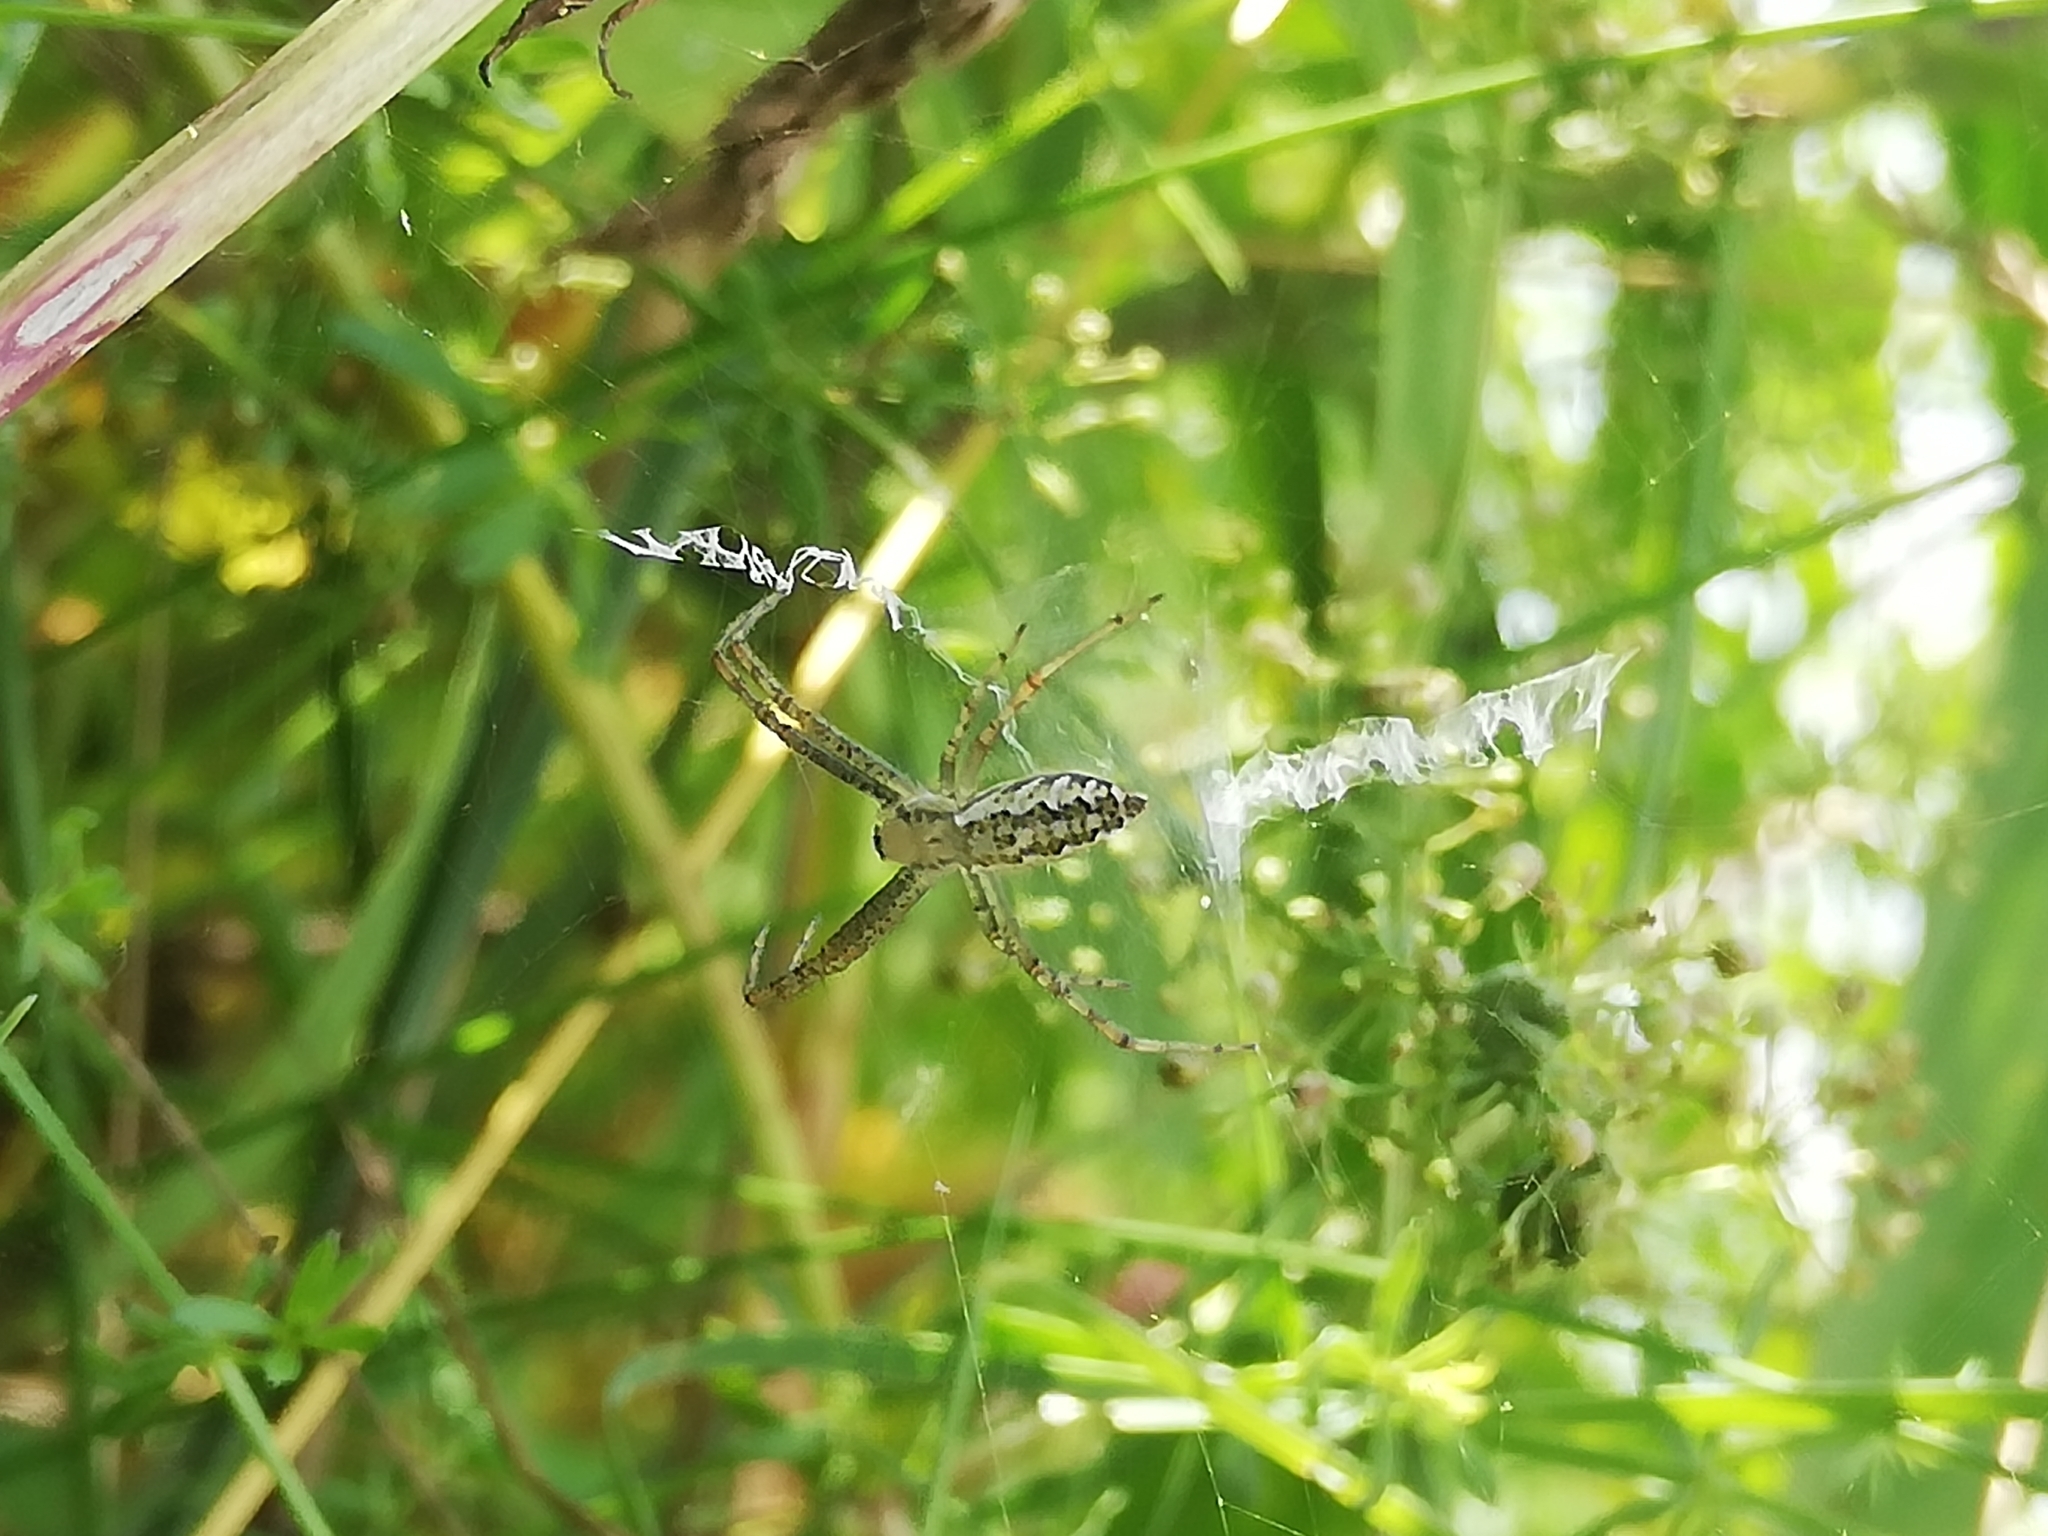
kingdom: Animalia
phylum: Arthropoda
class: Arachnida
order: Araneae
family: Araneidae
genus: Argiope
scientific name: Argiope bruennichi
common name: Wasp spider
